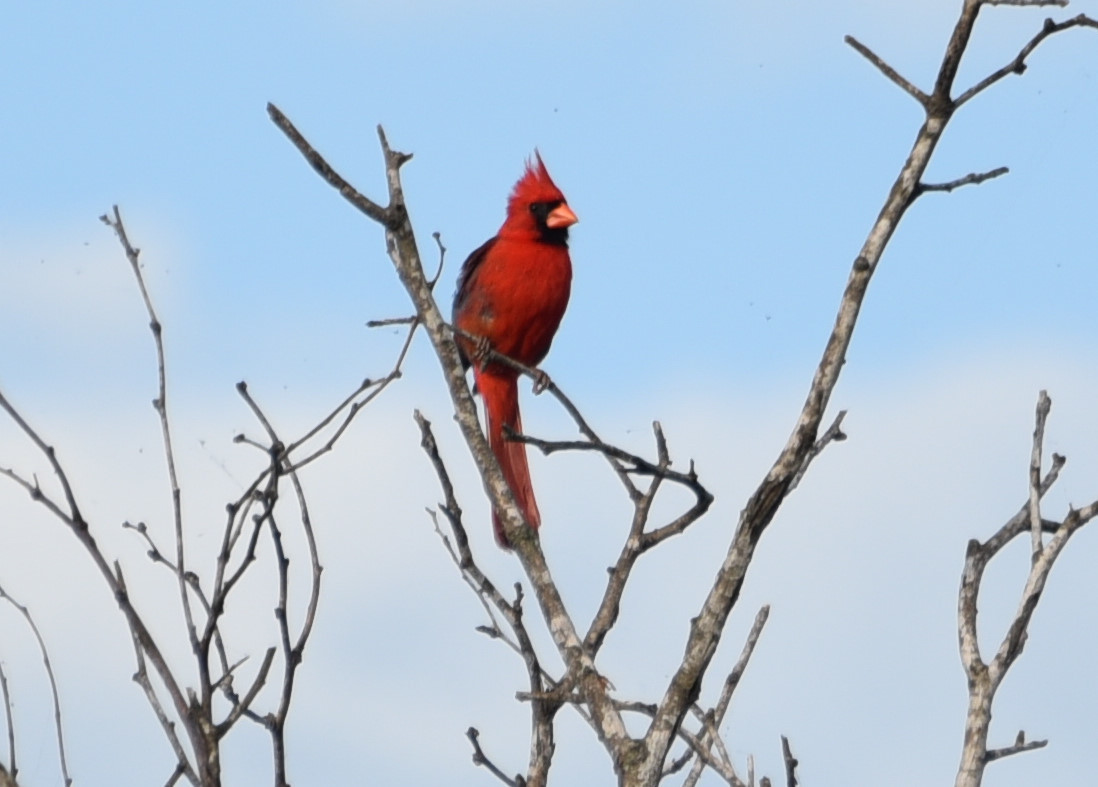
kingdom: Animalia
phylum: Chordata
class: Aves
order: Passeriformes
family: Cardinalidae
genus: Cardinalis
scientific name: Cardinalis cardinalis
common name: Northern cardinal
